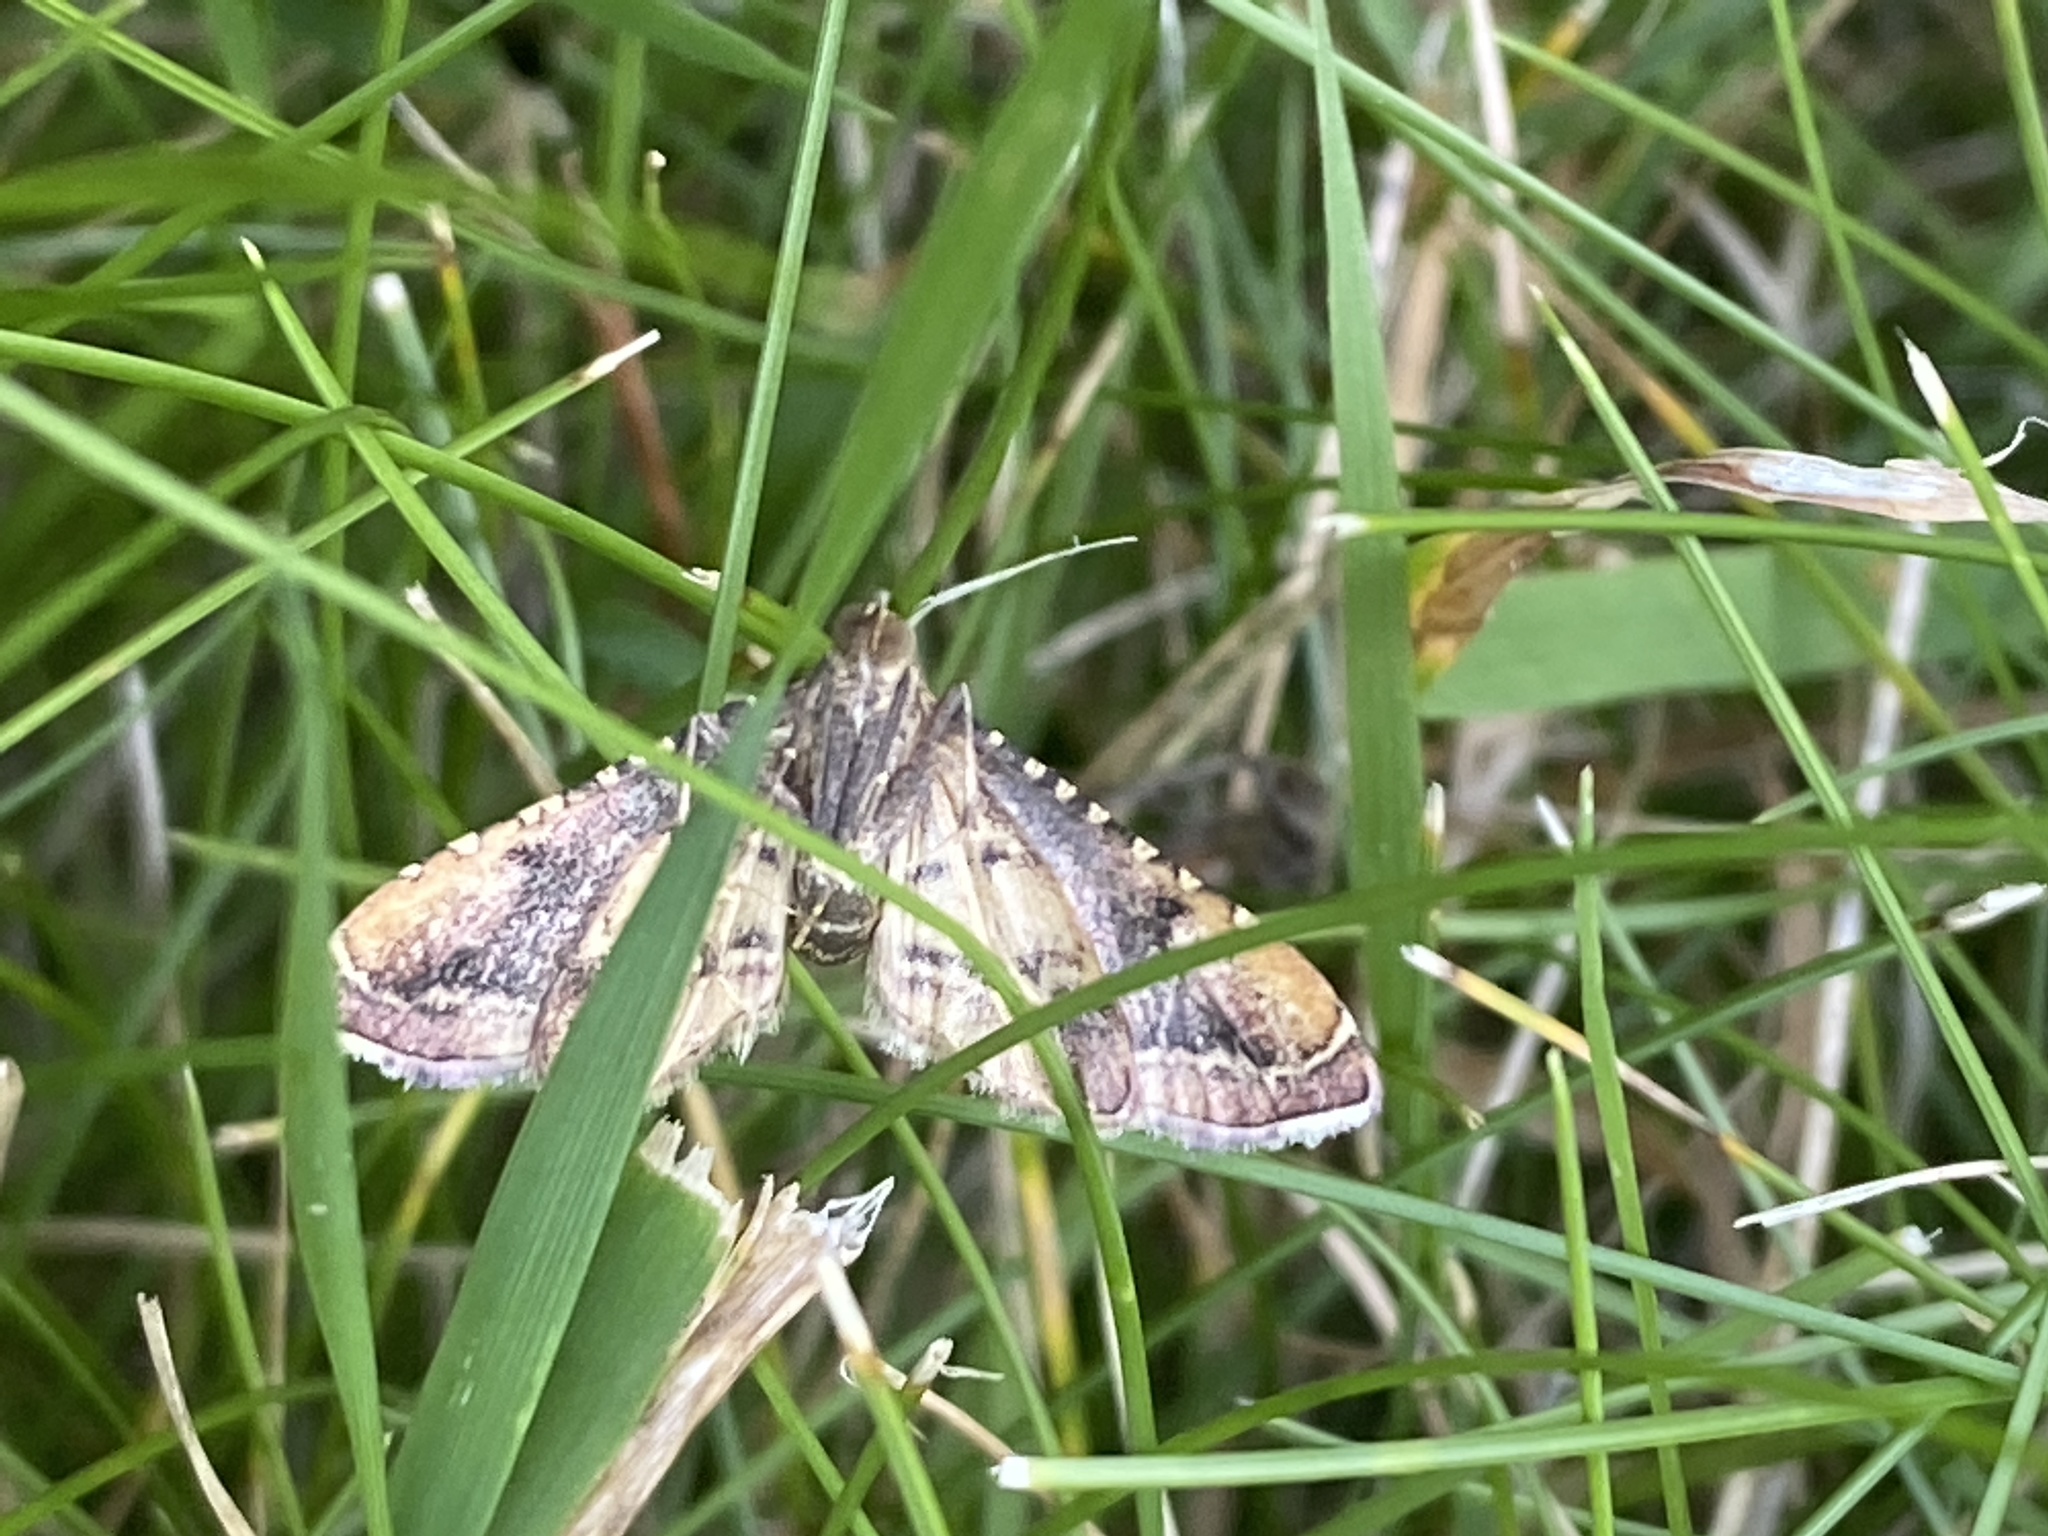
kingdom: Animalia
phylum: Arthropoda
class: Insecta
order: Lepidoptera
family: Pyralidae
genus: Endotricha
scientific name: Endotricha flammealis
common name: Rosy tabby
